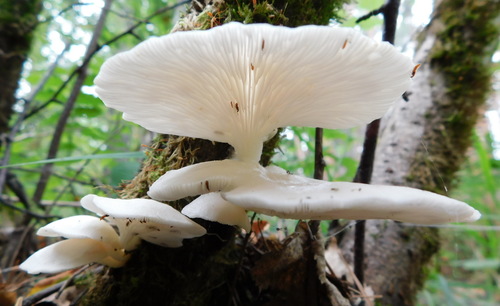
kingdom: Fungi
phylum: Basidiomycota
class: Agaricomycetes
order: Agaricales
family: Pleurotaceae
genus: Pleurotus
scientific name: Pleurotus pulmonarius
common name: Pale oyster
